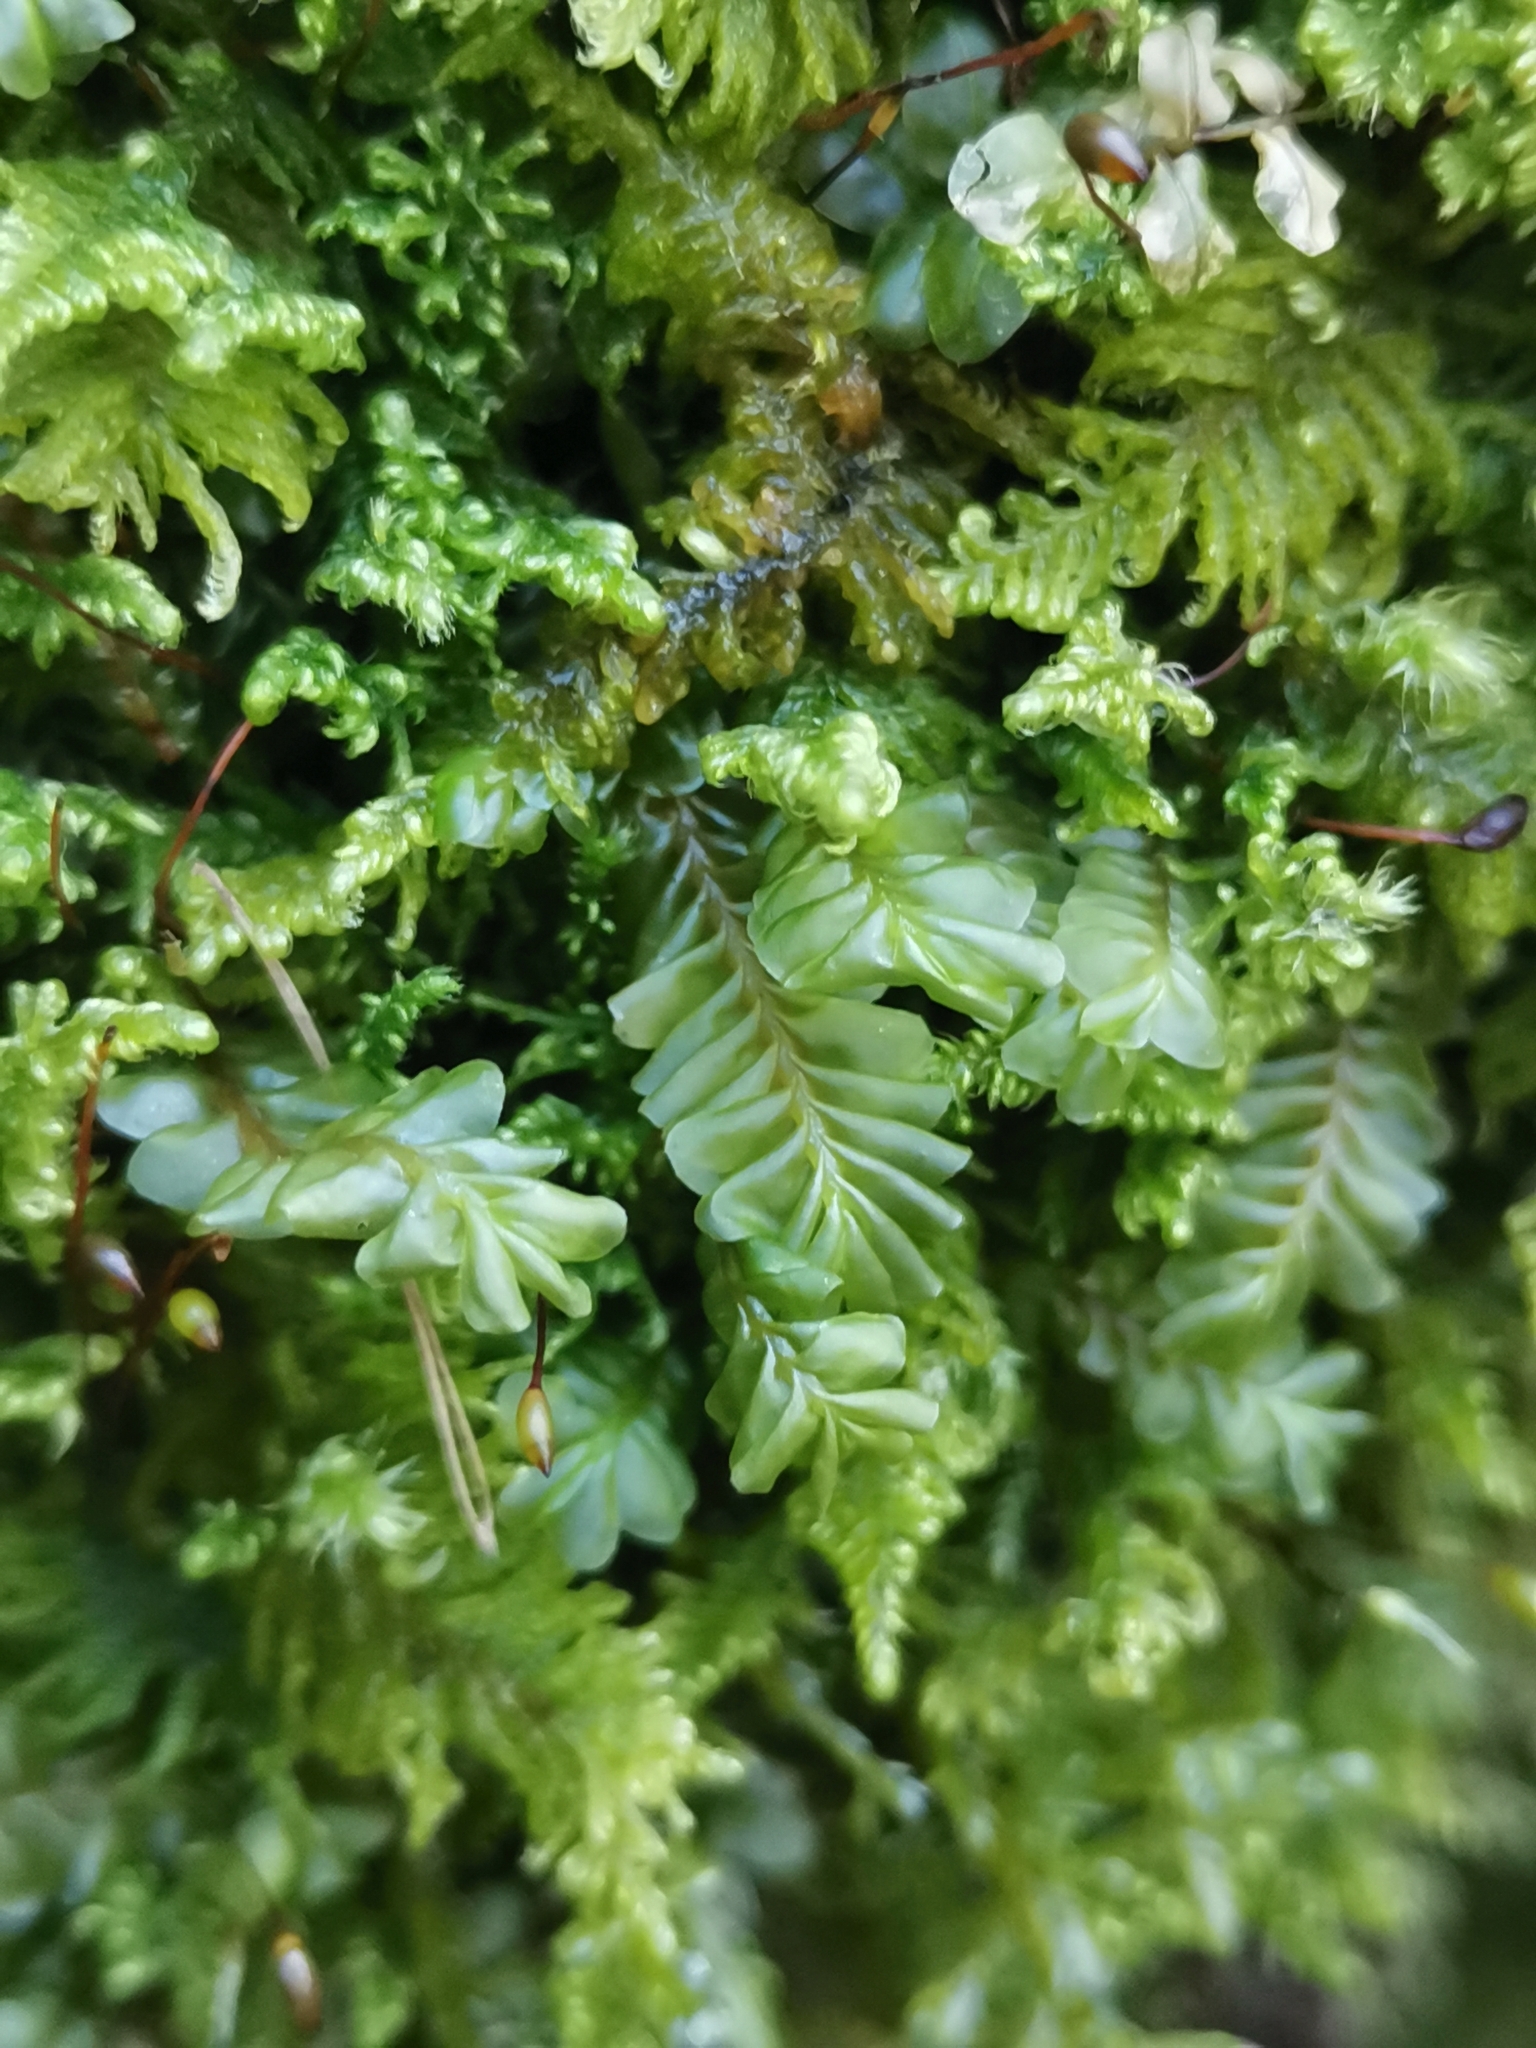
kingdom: Plantae
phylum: Marchantiophyta
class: Jungermanniopsida
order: Jungermanniales
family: Plagiochilaceae
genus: Plagiochila
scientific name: Plagiochila porelloides
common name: Lesser featherwort
